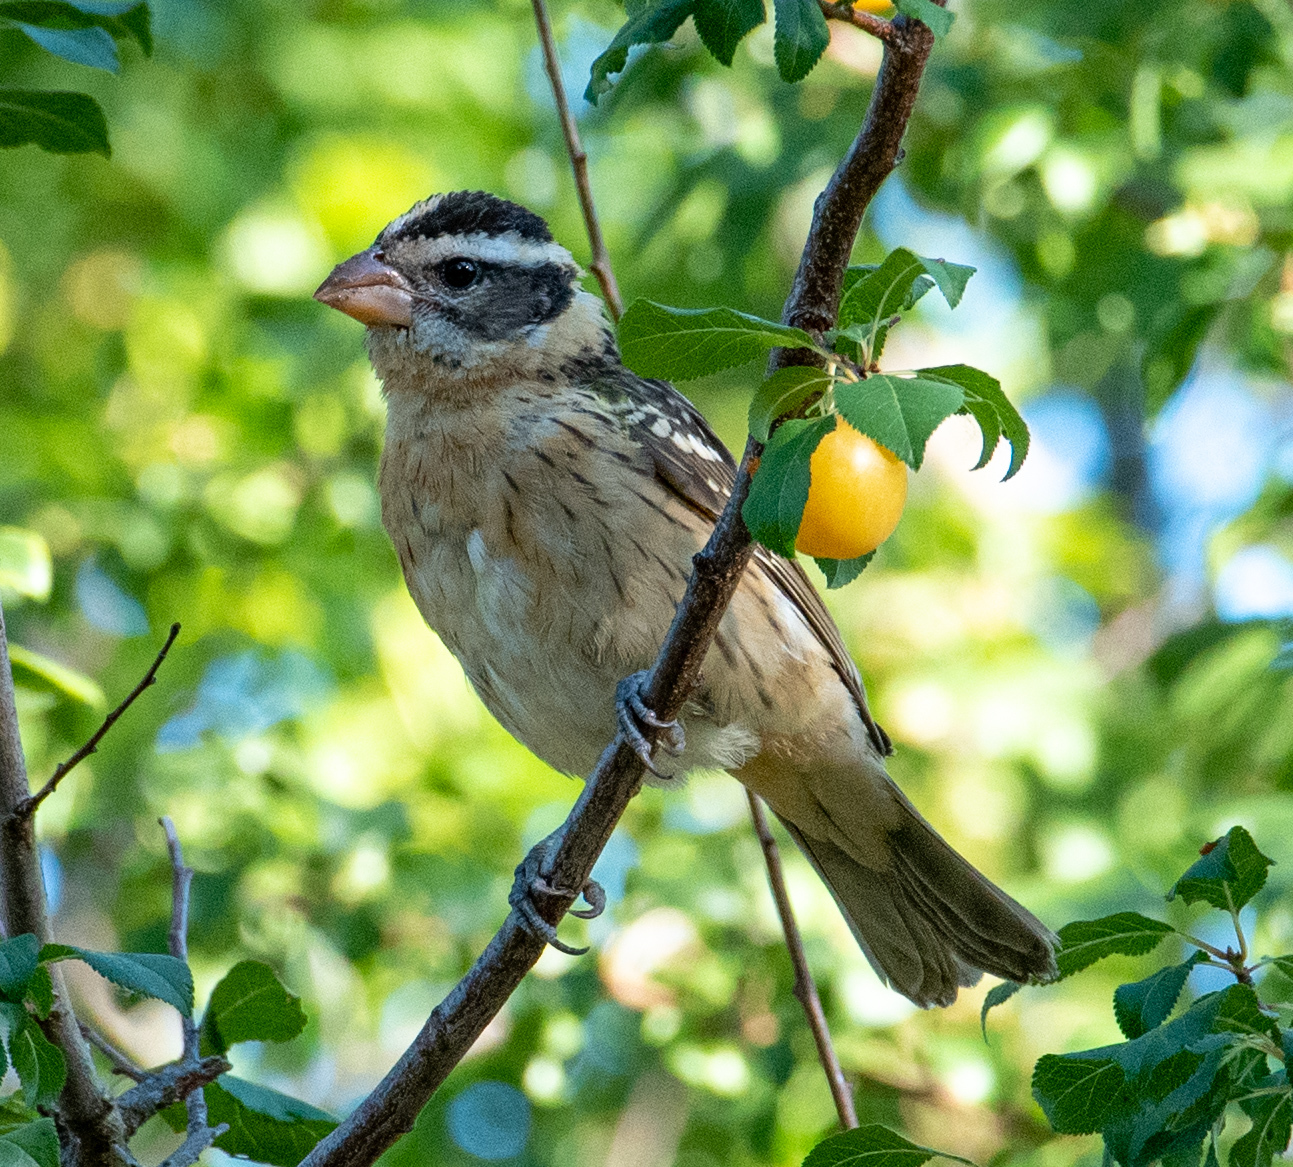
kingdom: Animalia
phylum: Chordata
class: Aves
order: Passeriformes
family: Cardinalidae
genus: Pheucticus
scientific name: Pheucticus melanocephalus
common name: Black-headed grosbeak
